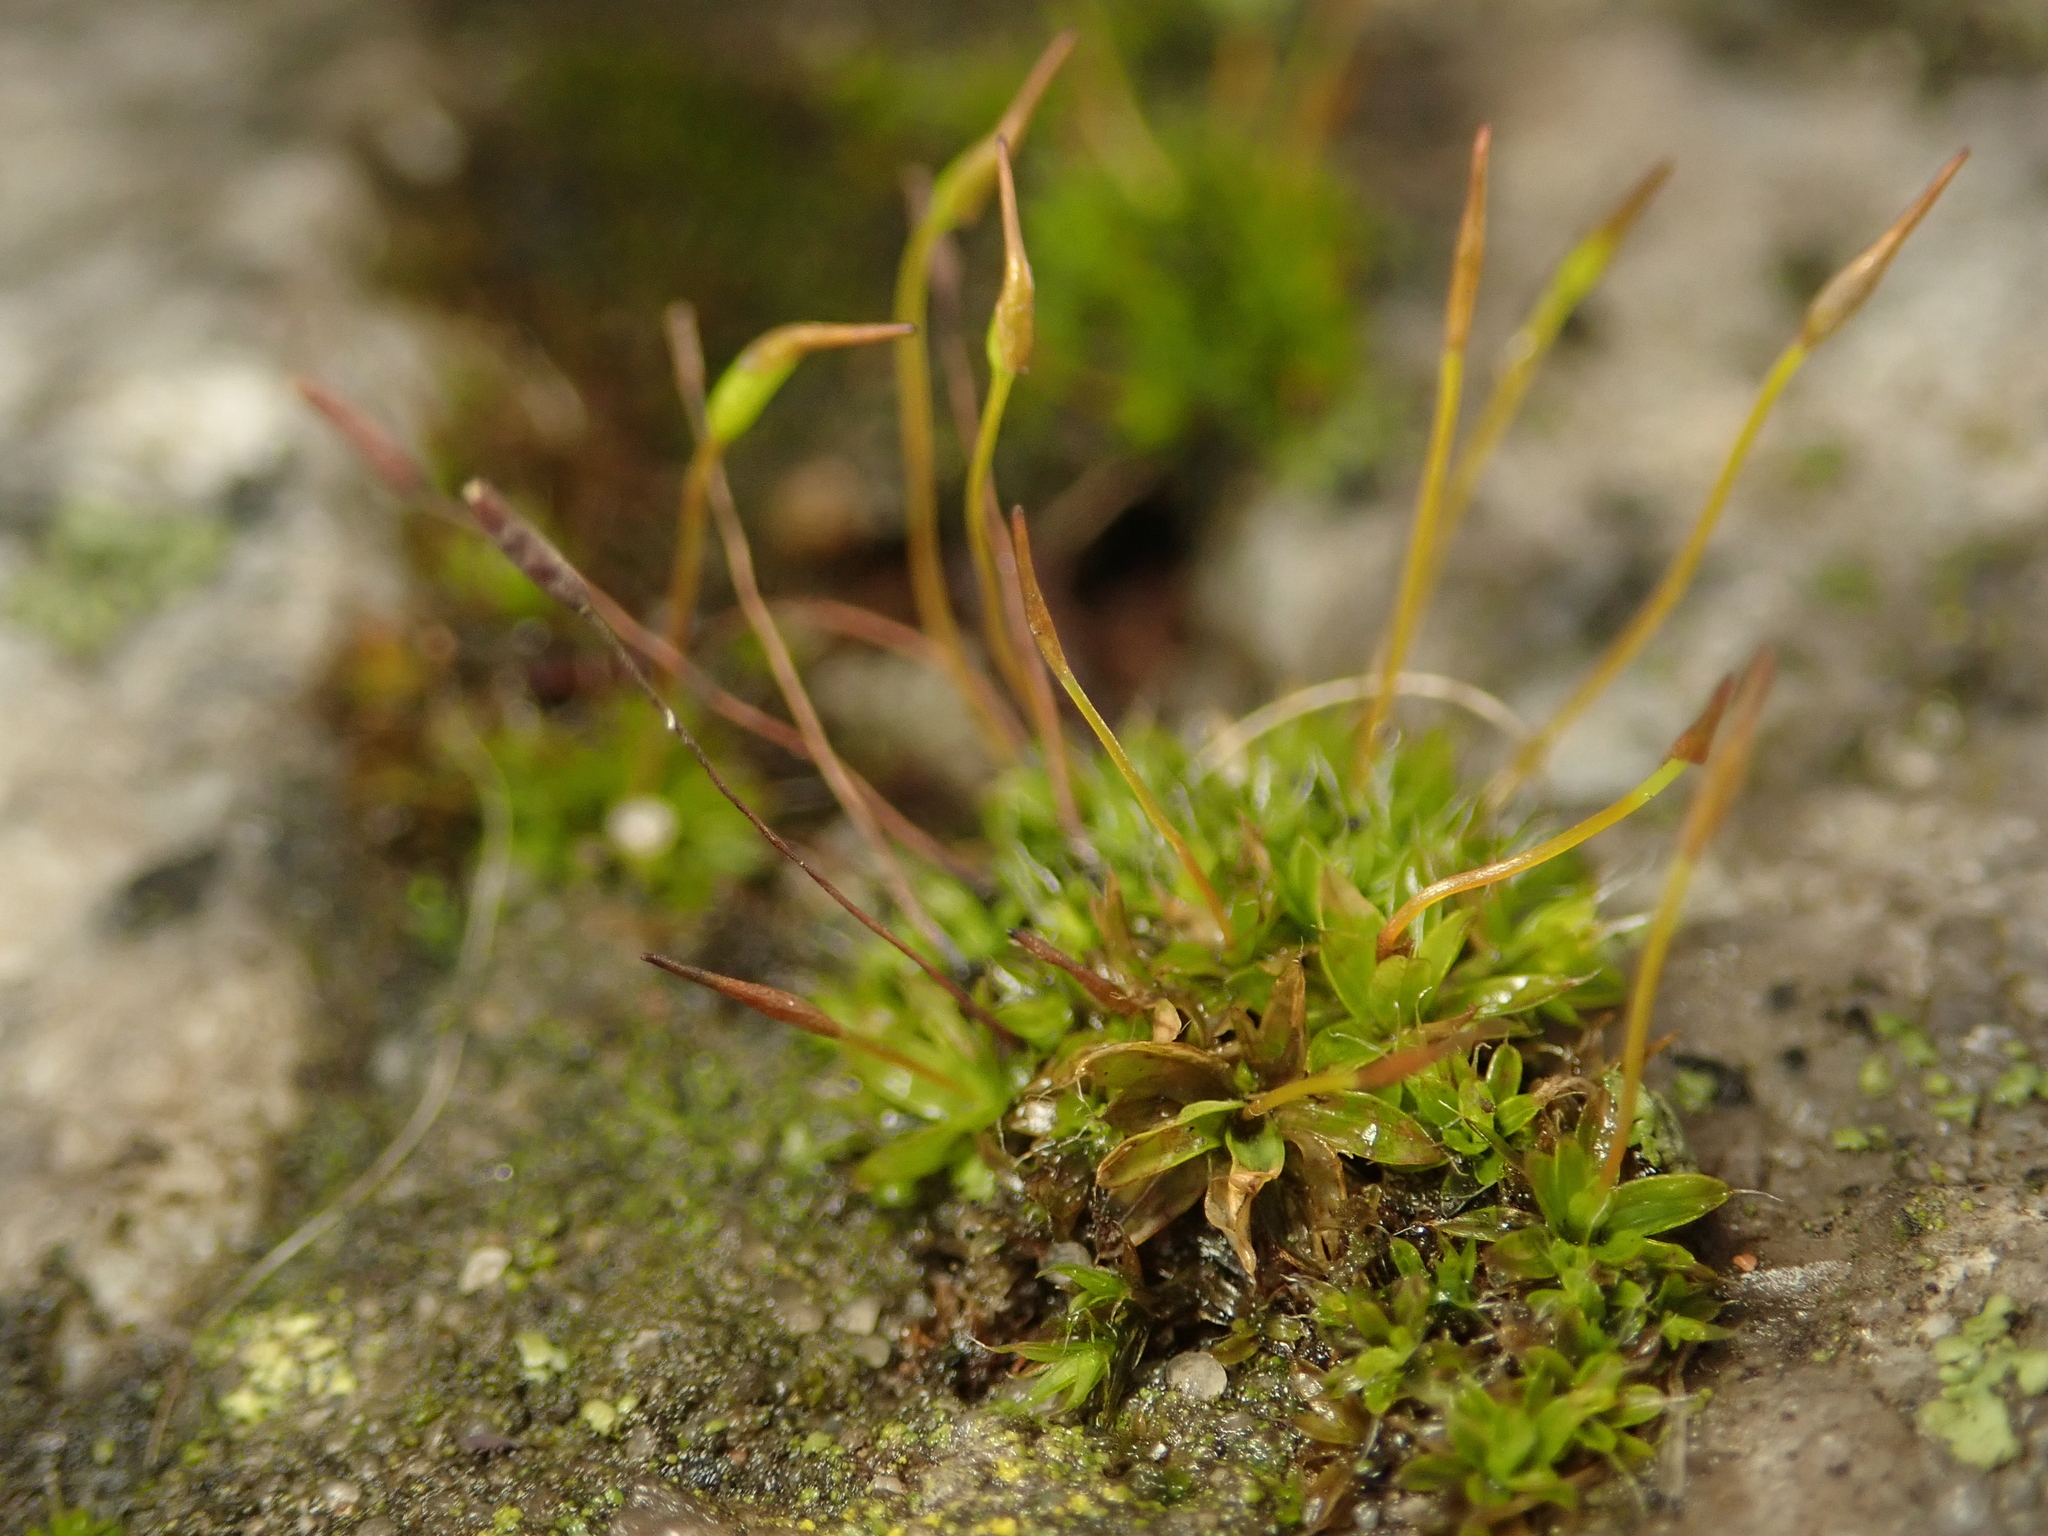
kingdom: Plantae
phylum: Bryophyta
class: Bryopsida
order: Pottiales
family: Pottiaceae
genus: Tortula
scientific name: Tortula muralis
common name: Wall screw-moss
